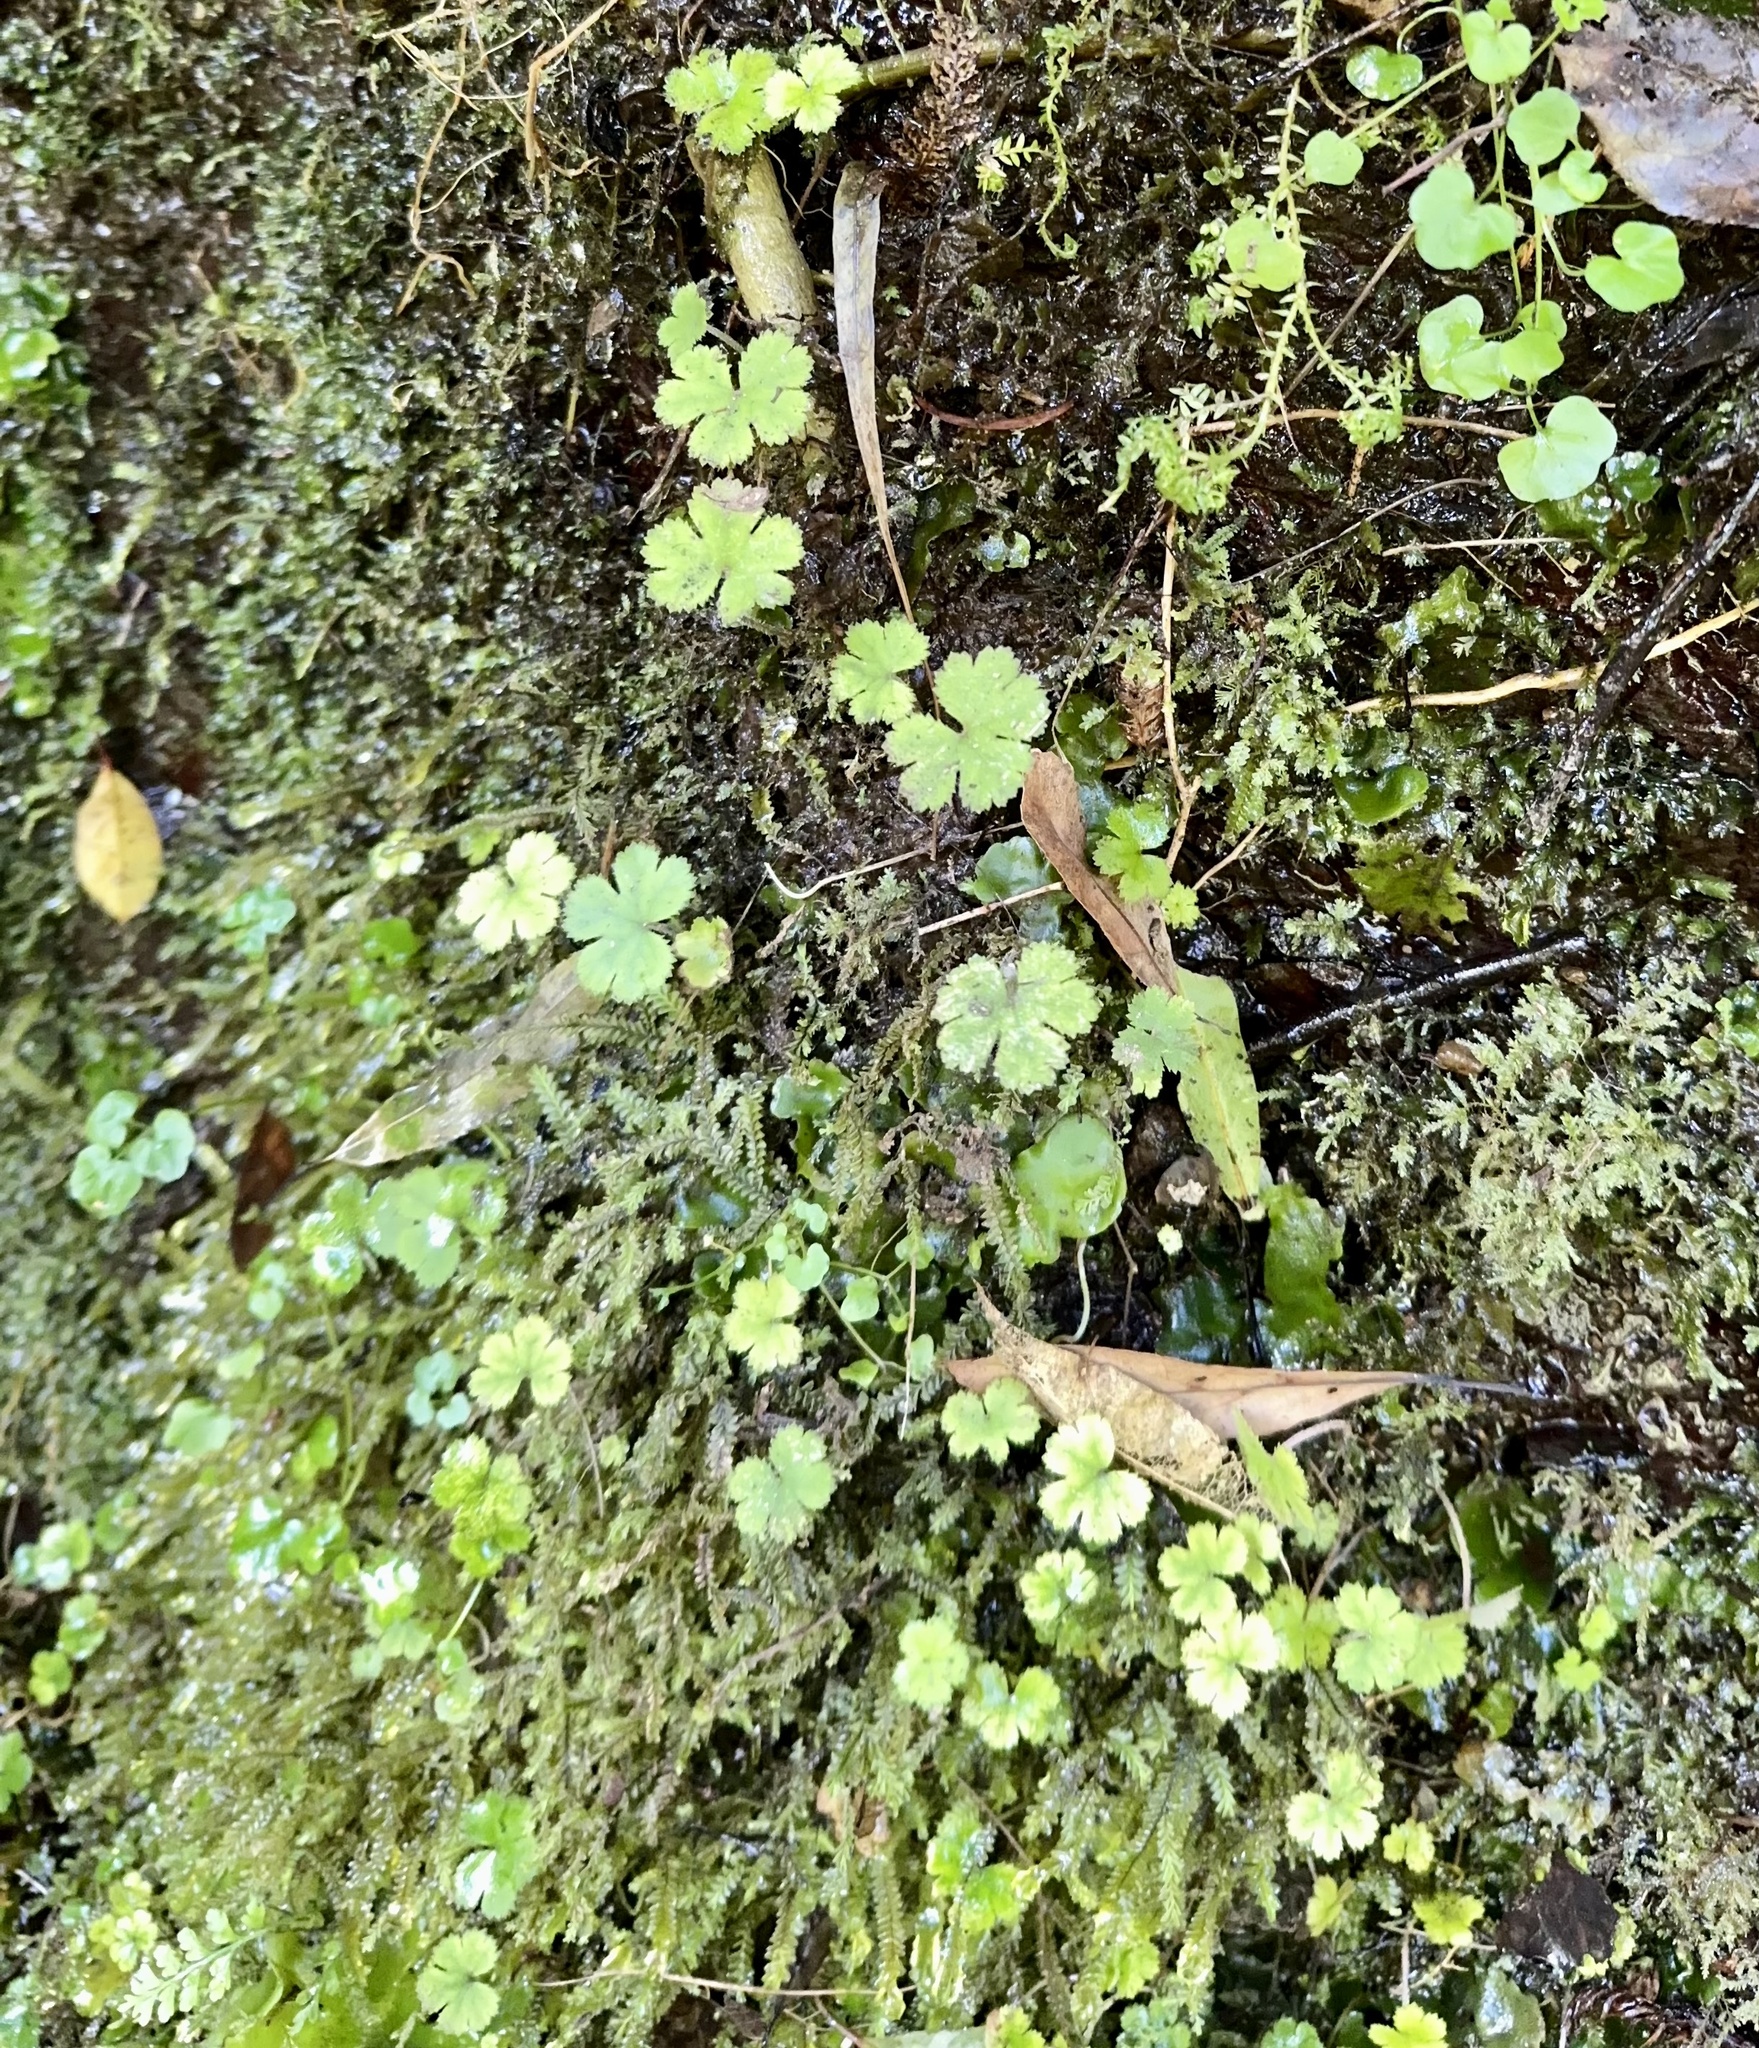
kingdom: Plantae
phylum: Tracheophyta
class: Magnoliopsida
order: Apiales
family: Araliaceae
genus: Hydrocotyle
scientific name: Hydrocotyle elongata
